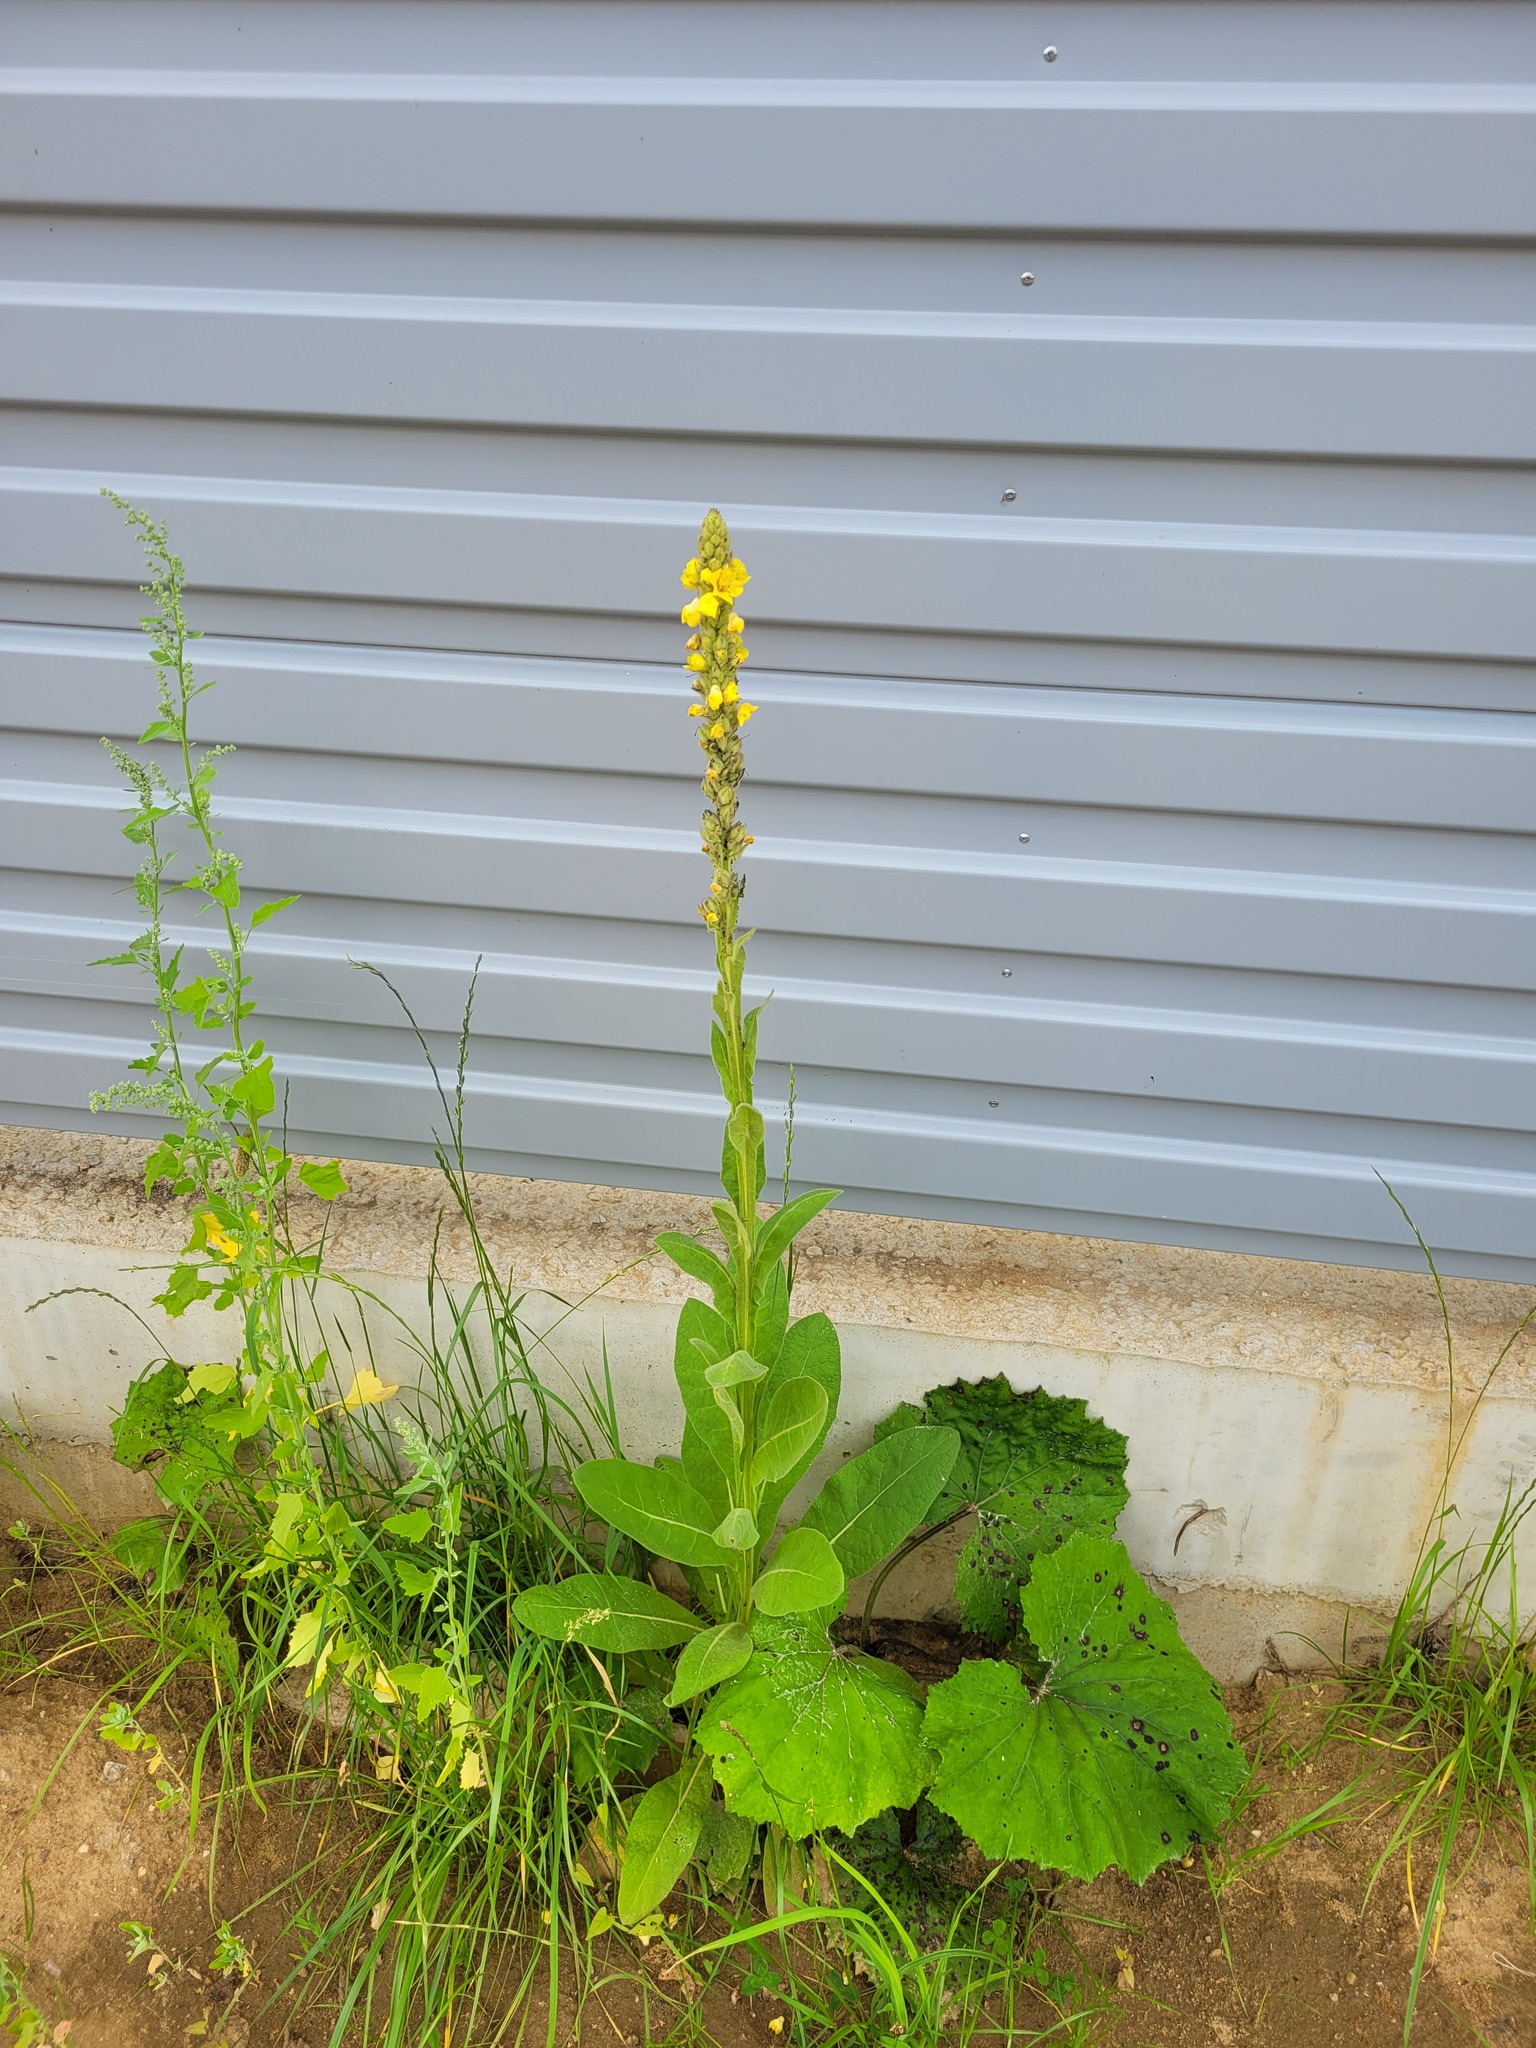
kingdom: Plantae
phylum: Tracheophyta
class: Magnoliopsida
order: Lamiales
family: Scrophulariaceae
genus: Verbascum
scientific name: Verbascum thapsus
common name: Common mullein
